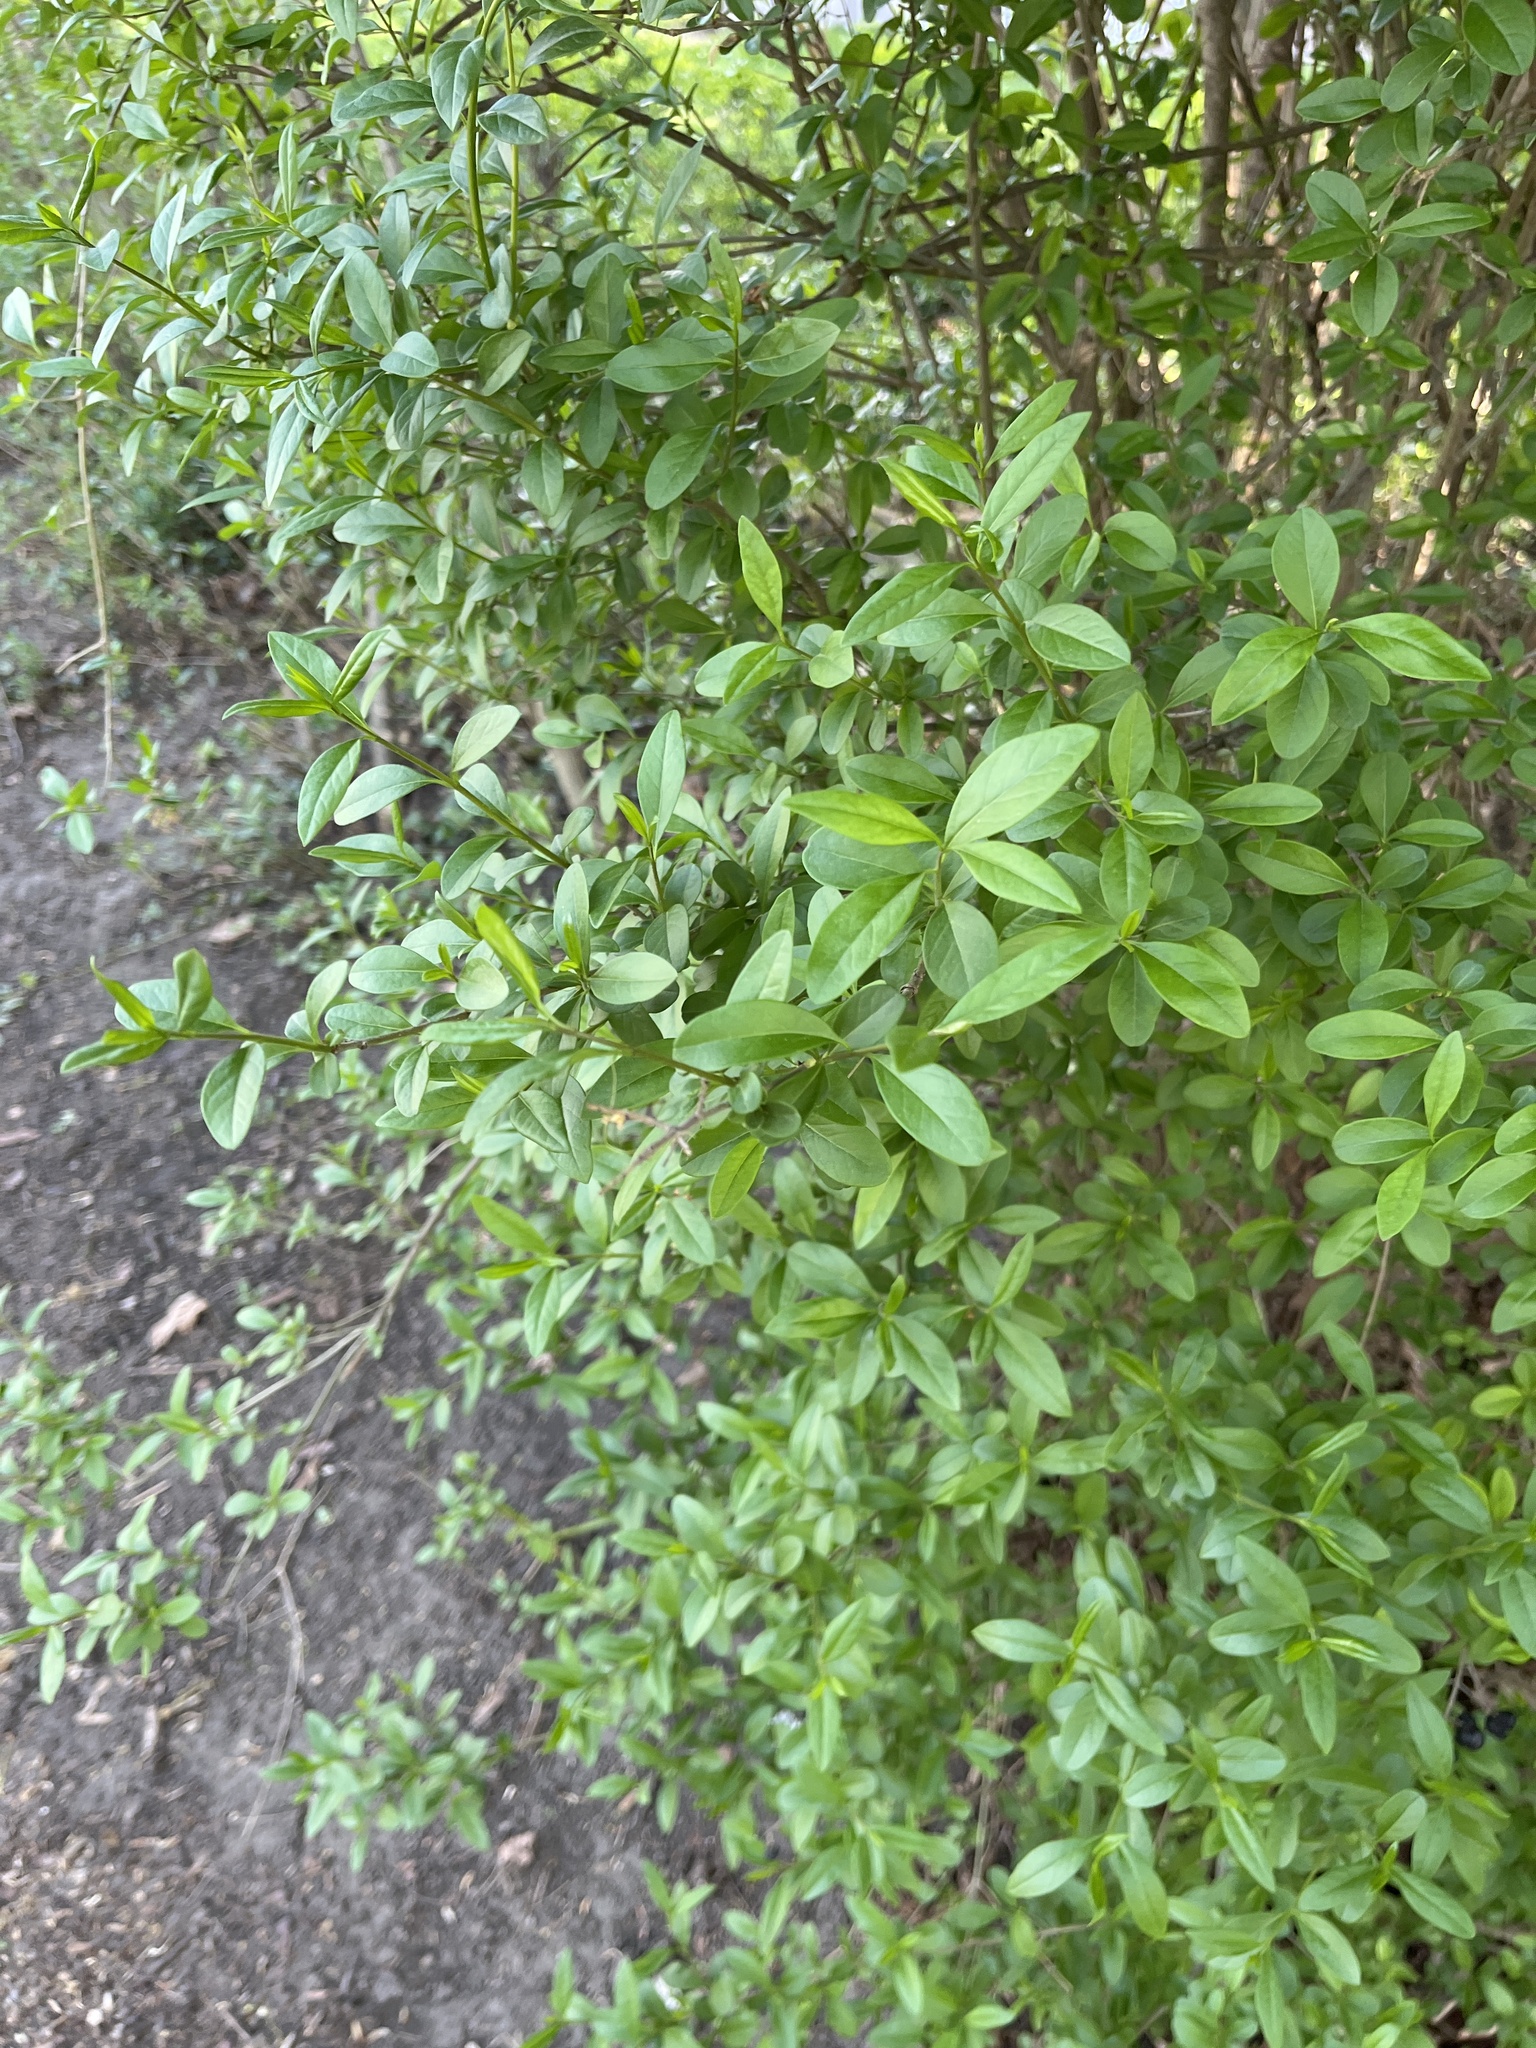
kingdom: Plantae
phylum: Tracheophyta
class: Magnoliopsida
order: Lamiales
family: Oleaceae
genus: Ligustrum
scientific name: Ligustrum vulgare
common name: Wild privet
